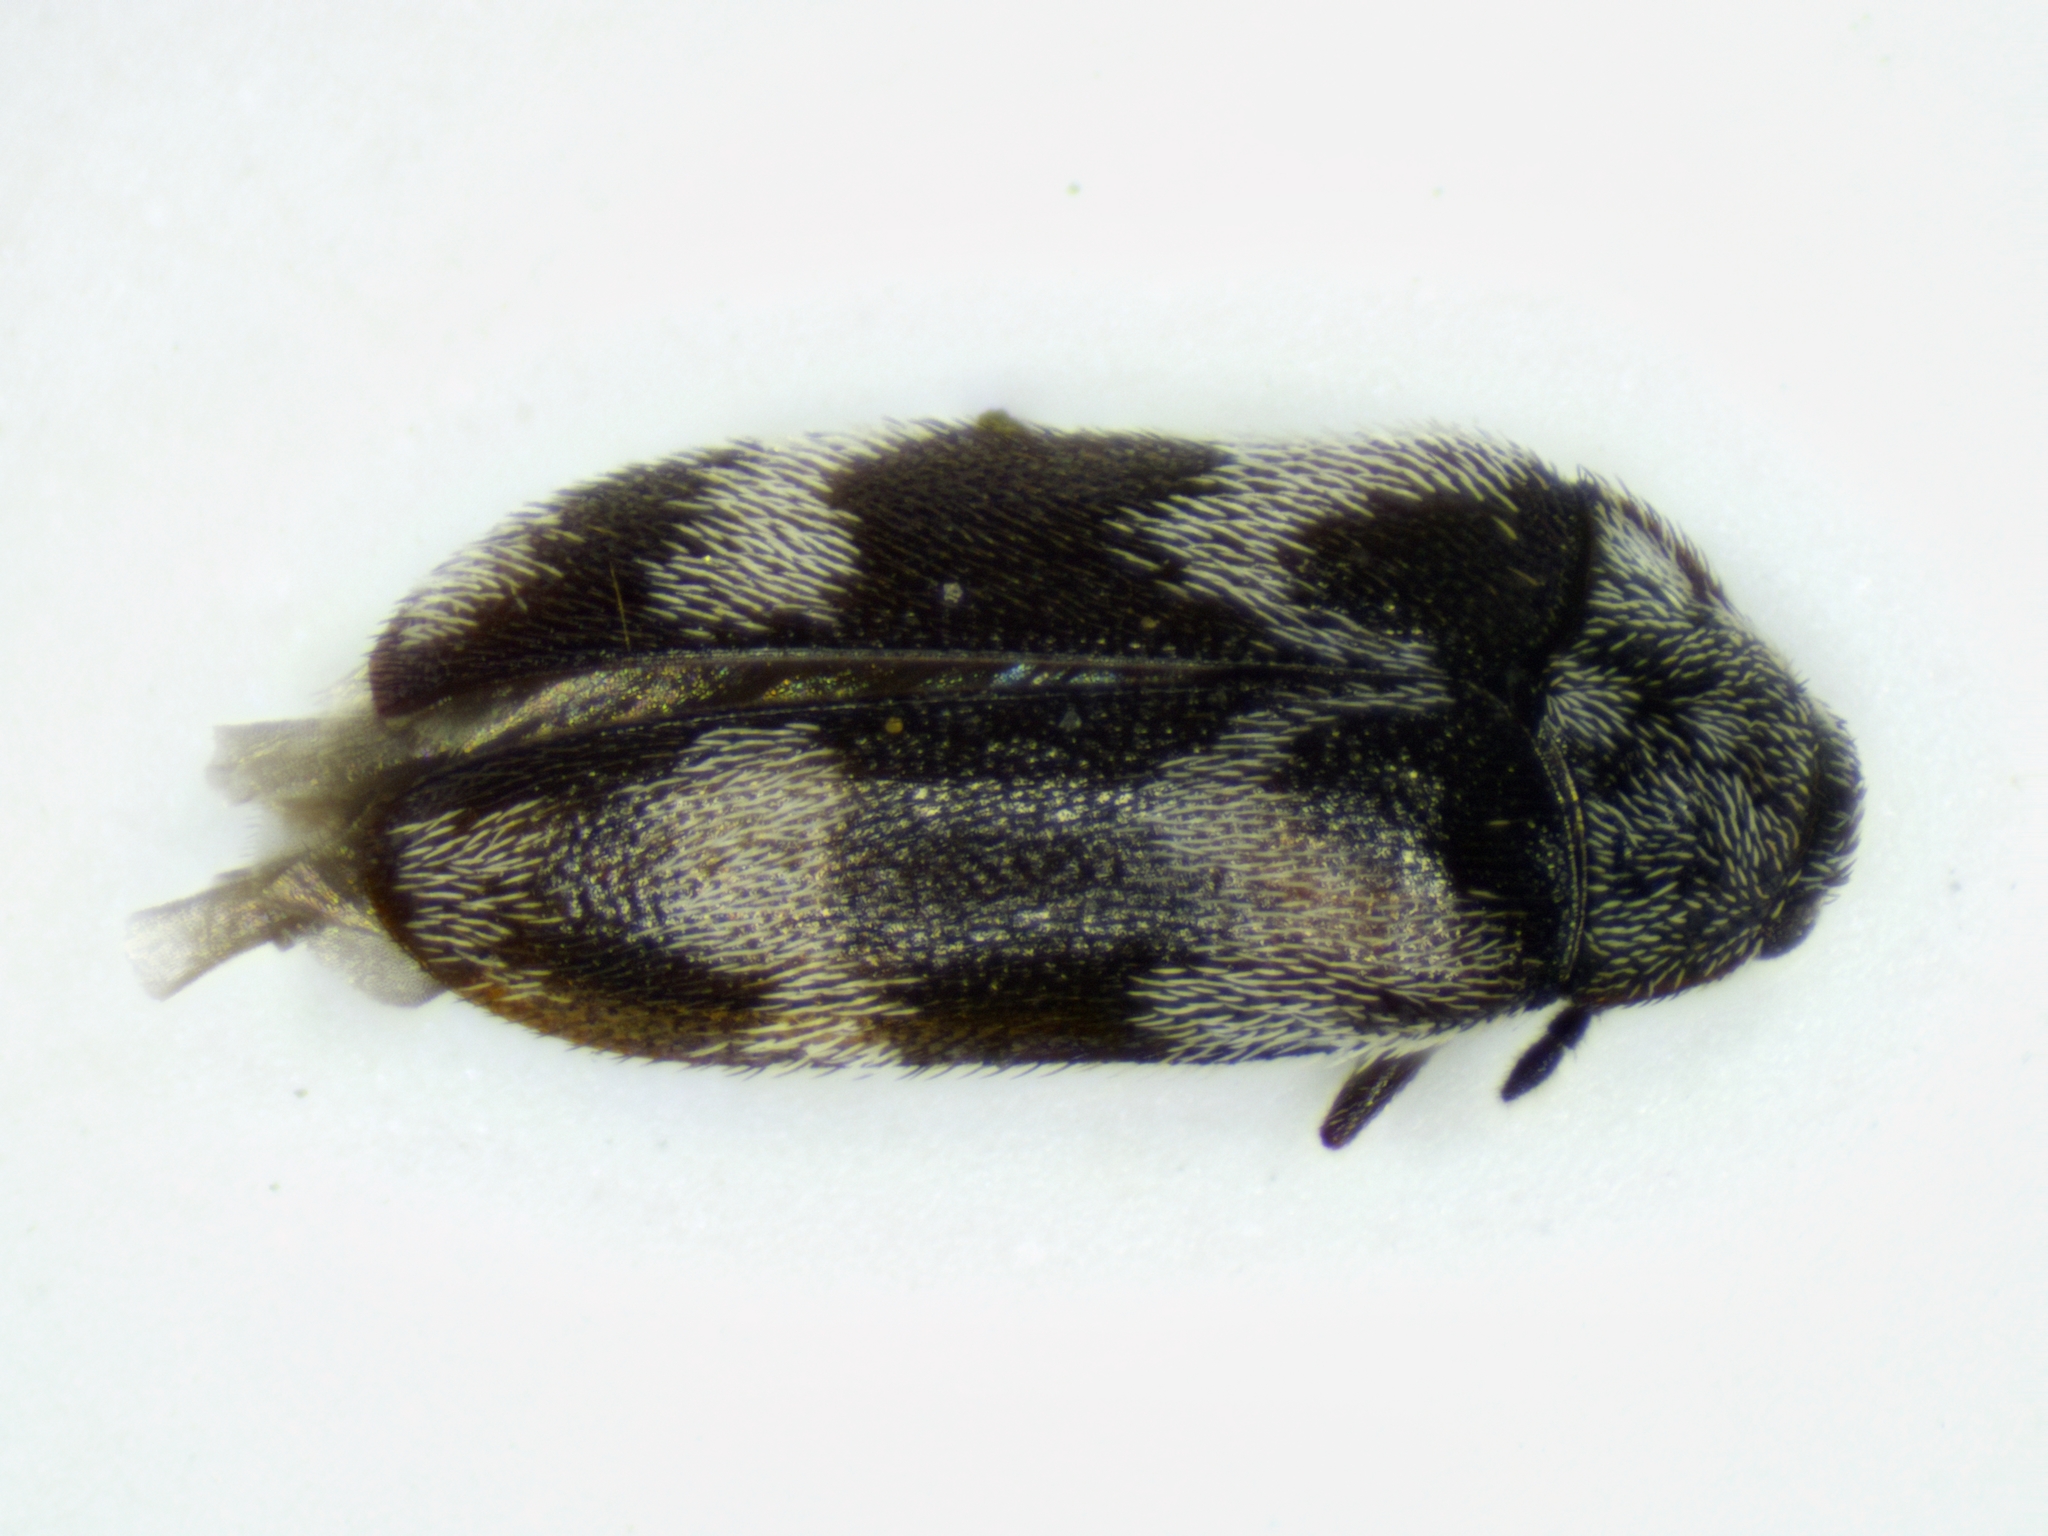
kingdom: Animalia
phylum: Arthropoda
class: Insecta
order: Coleoptera
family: Dermestidae
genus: Trogoderma
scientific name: Trogoderma angustum
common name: Skin beetle
